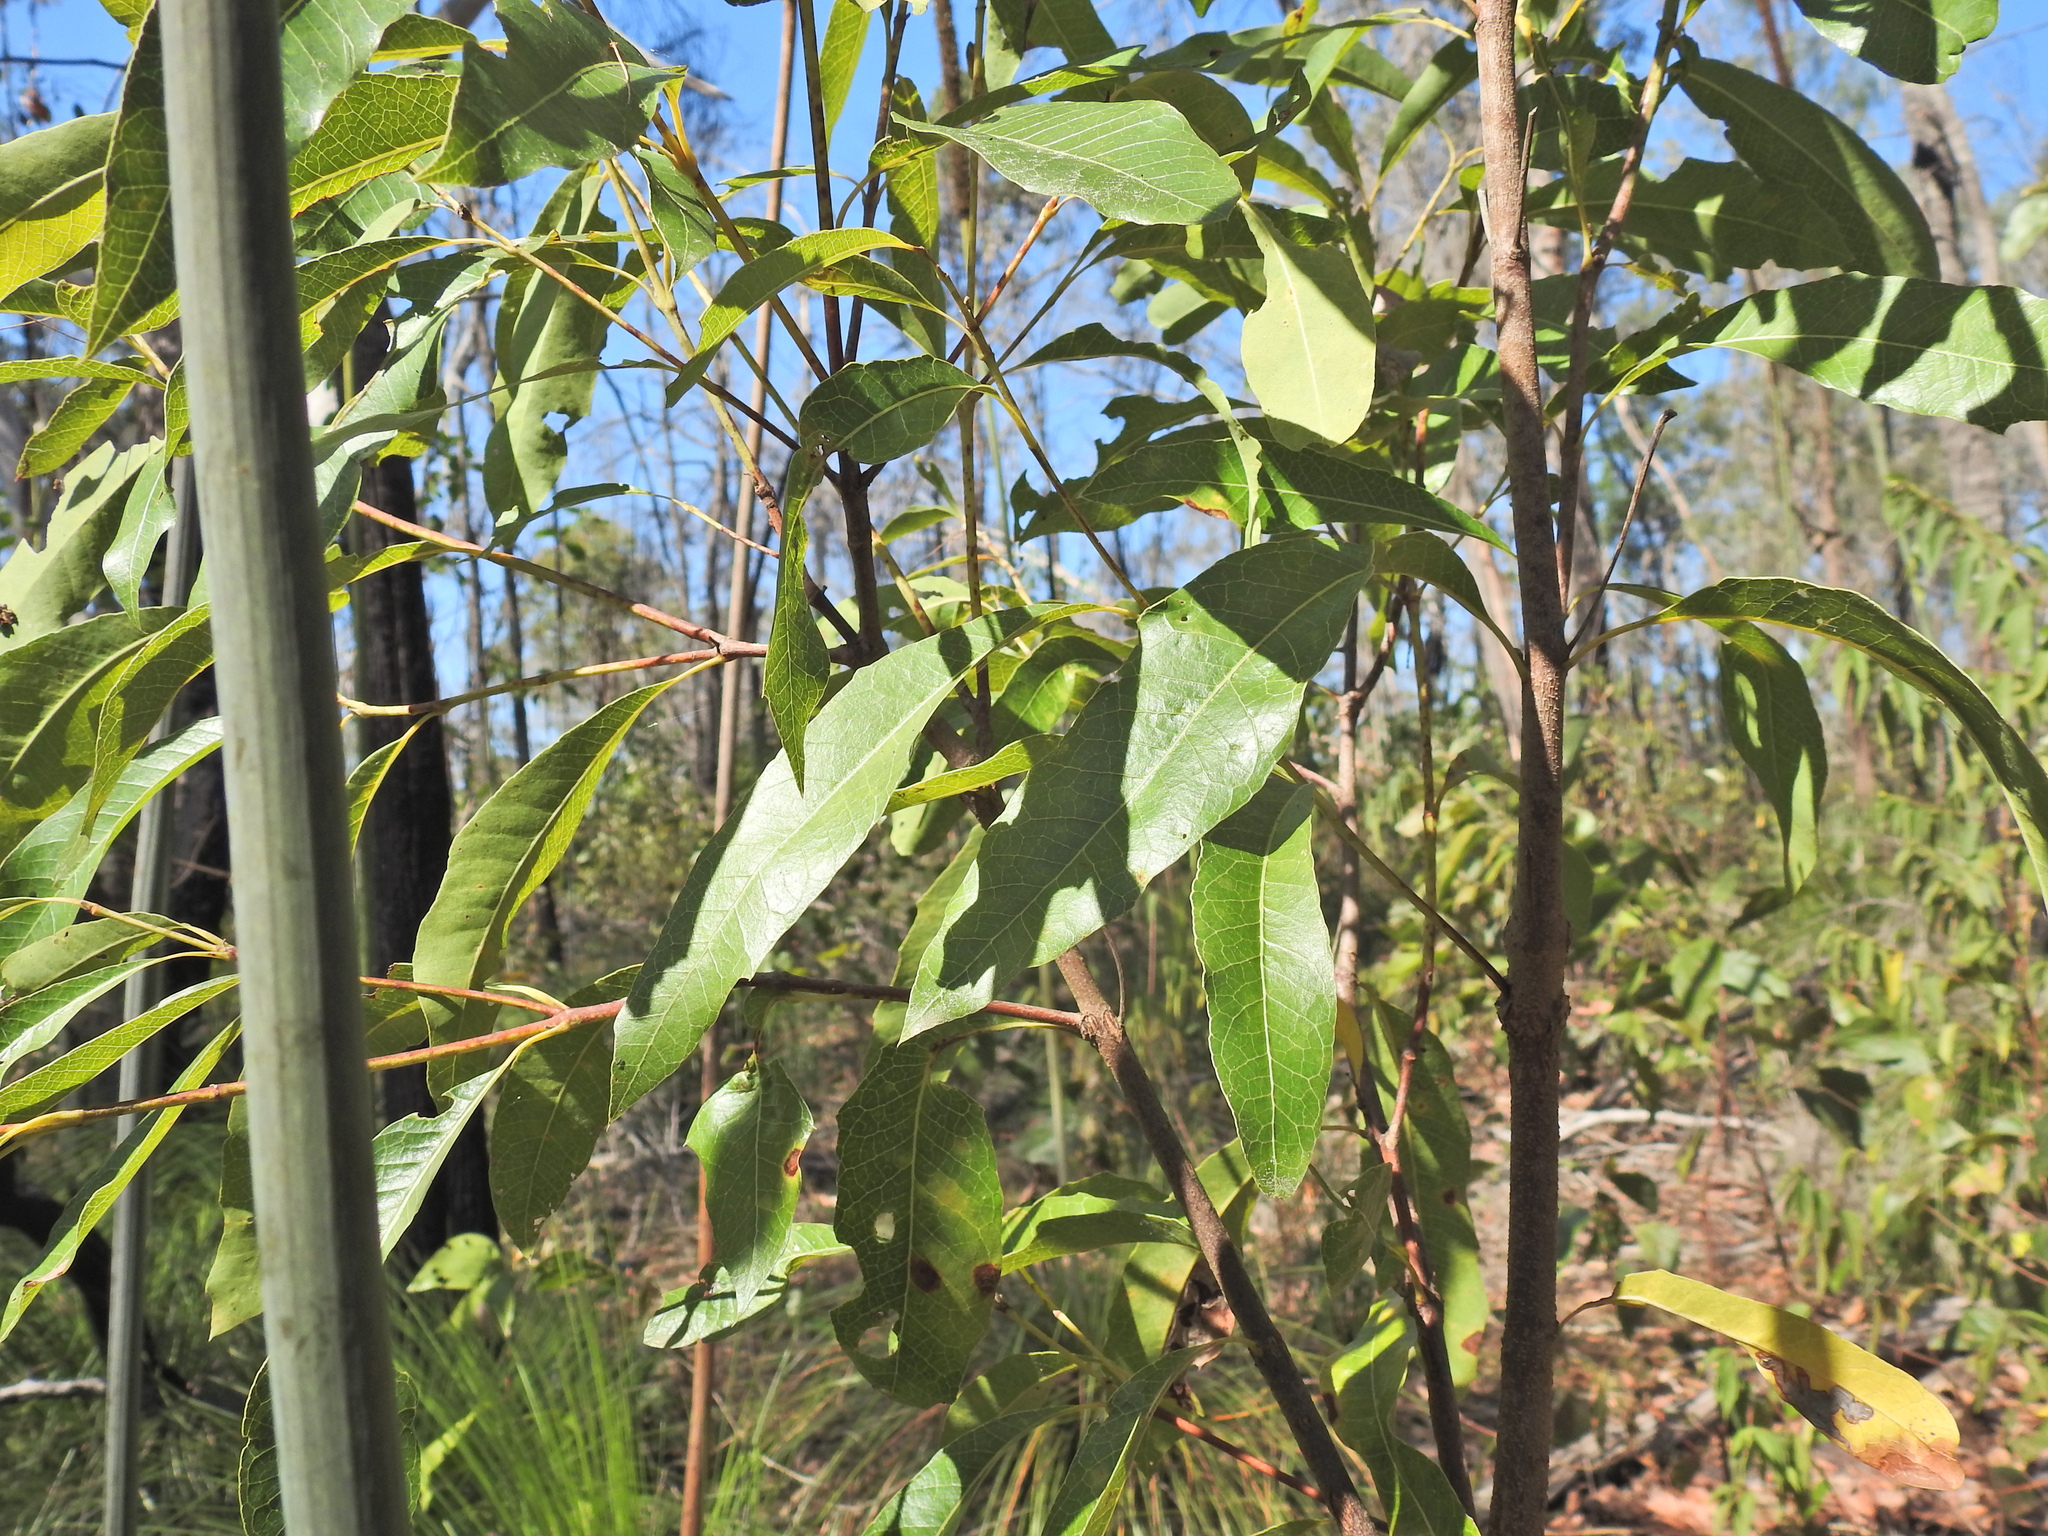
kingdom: Plantae
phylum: Tracheophyta
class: Magnoliopsida
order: Proteales
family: Proteaceae
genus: Xylomelum
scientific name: Xylomelum salicinum
